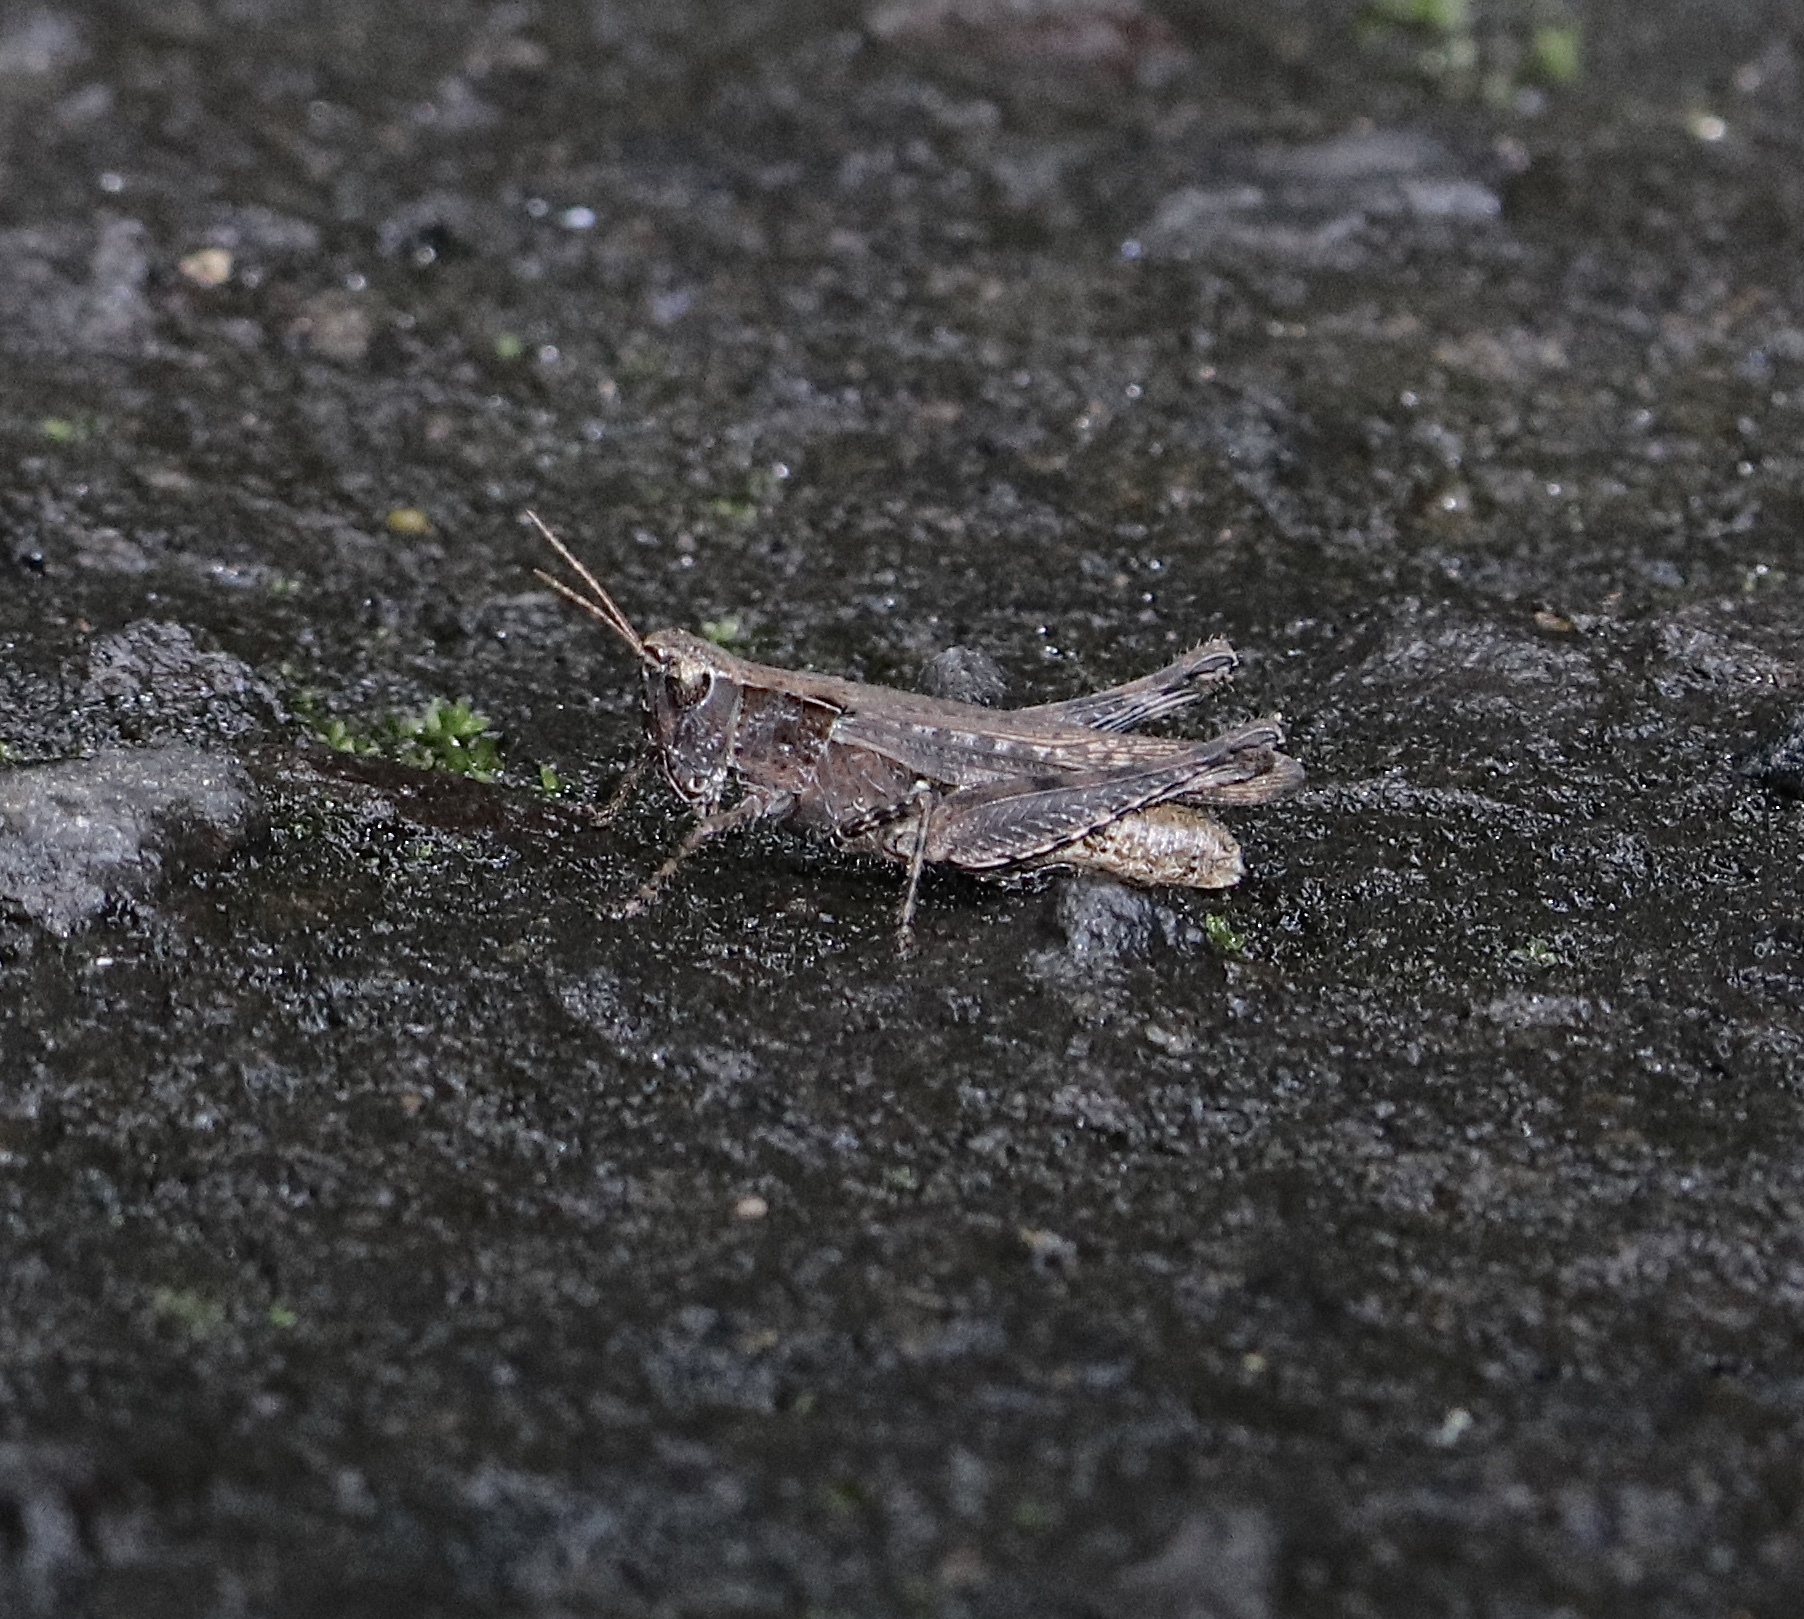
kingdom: Animalia
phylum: Arthropoda
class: Insecta
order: Orthoptera
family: Acrididae
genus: Orphulella
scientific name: Orphulella punctata
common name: Slant-faced grasshopper
